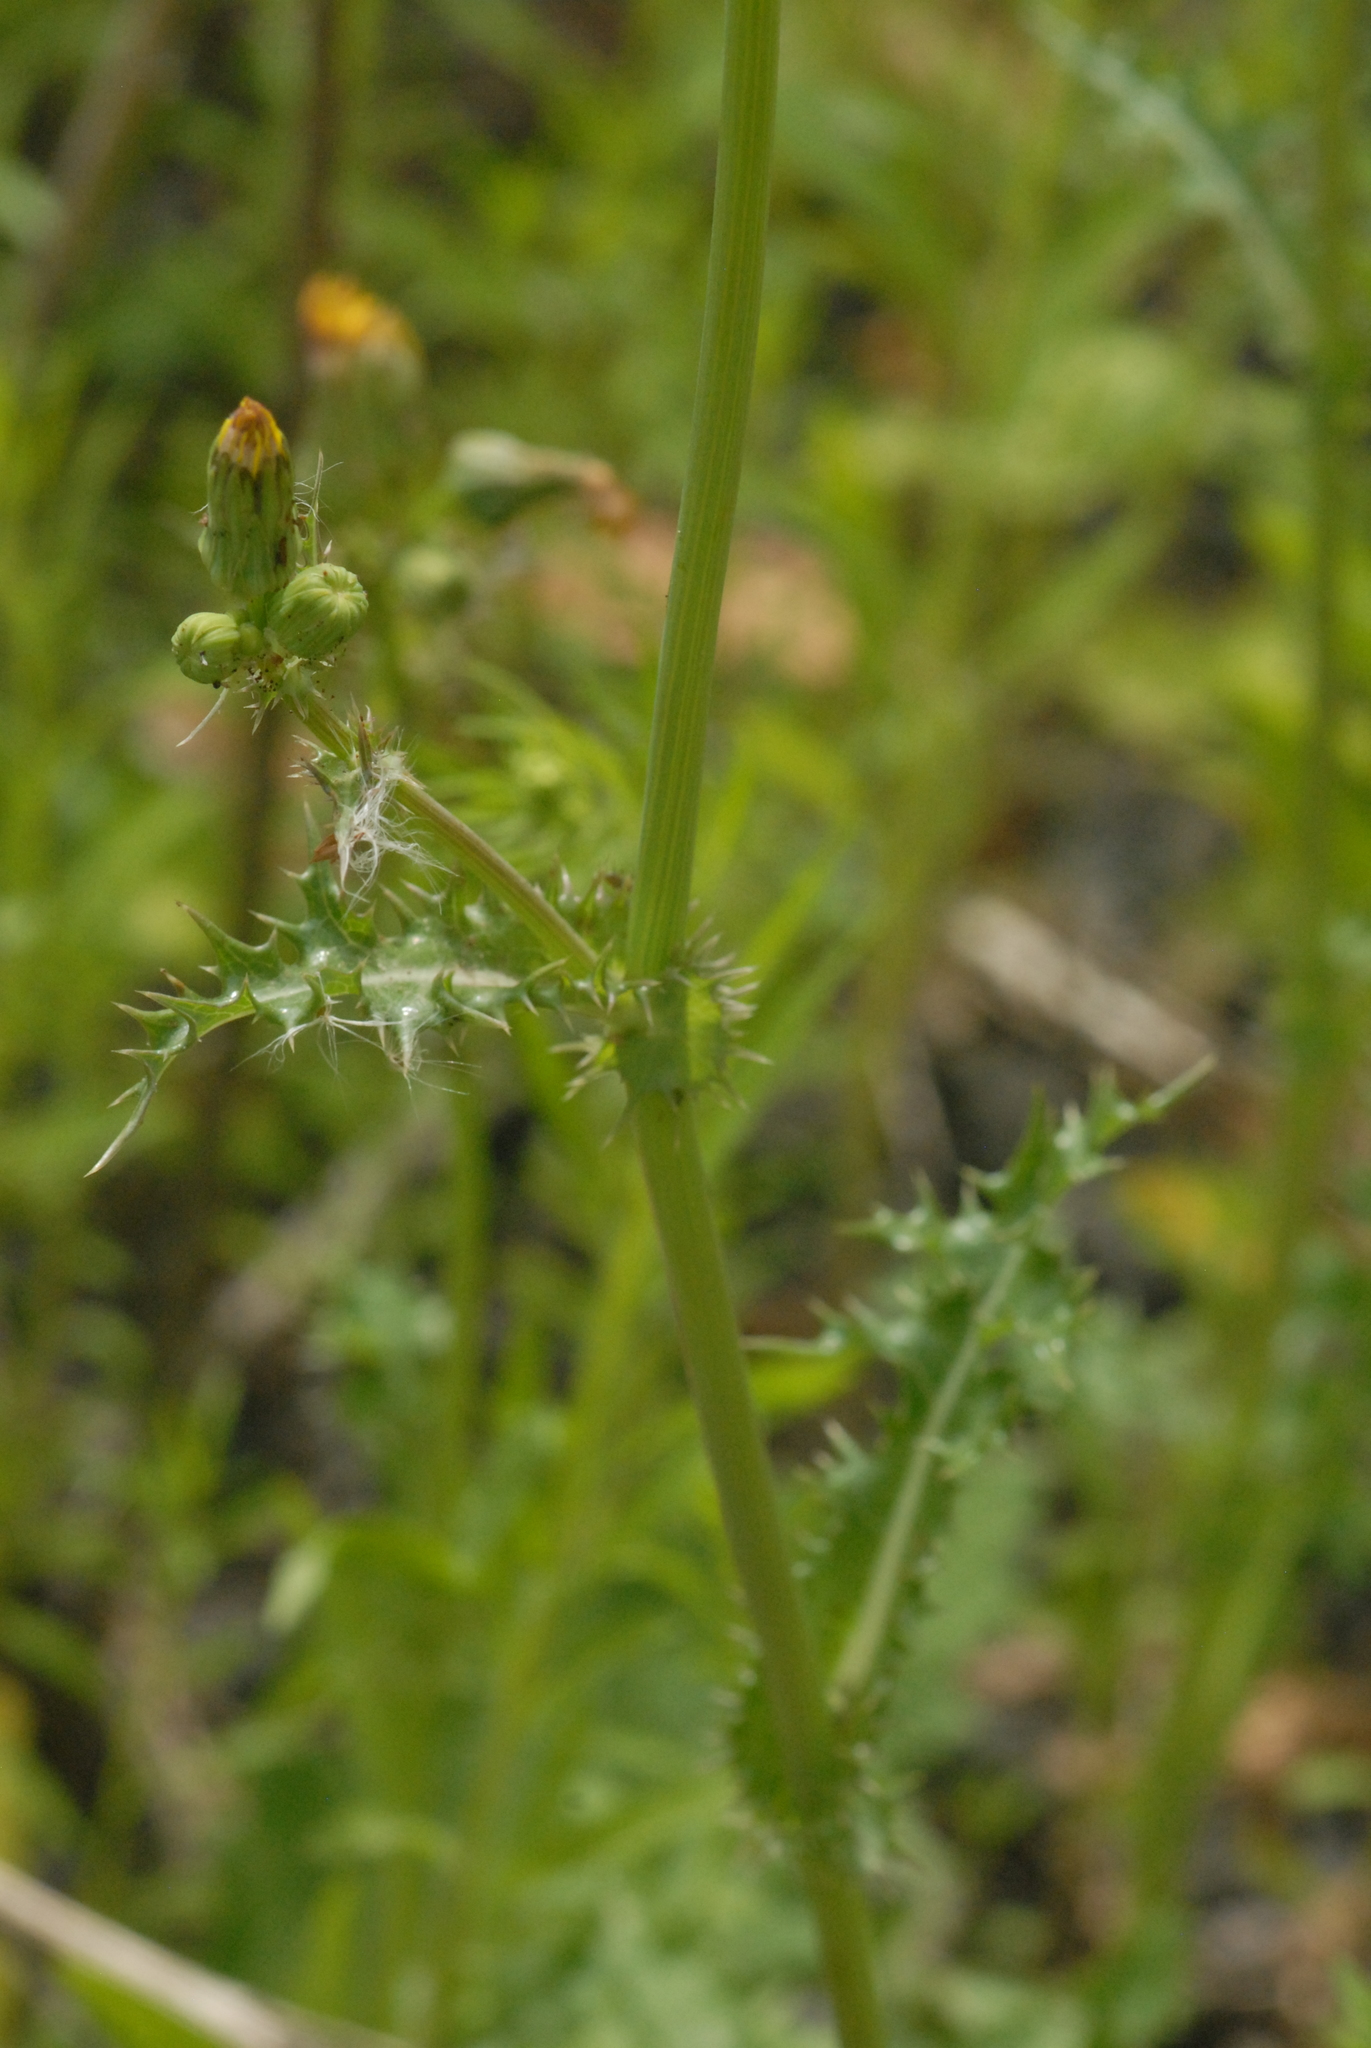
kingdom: Plantae
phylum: Tracheophyta
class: Magnoliopsida
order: Asterales
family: Asteraceae
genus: Sonchus
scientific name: Sonchus asper
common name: Prickly sow-thistle
